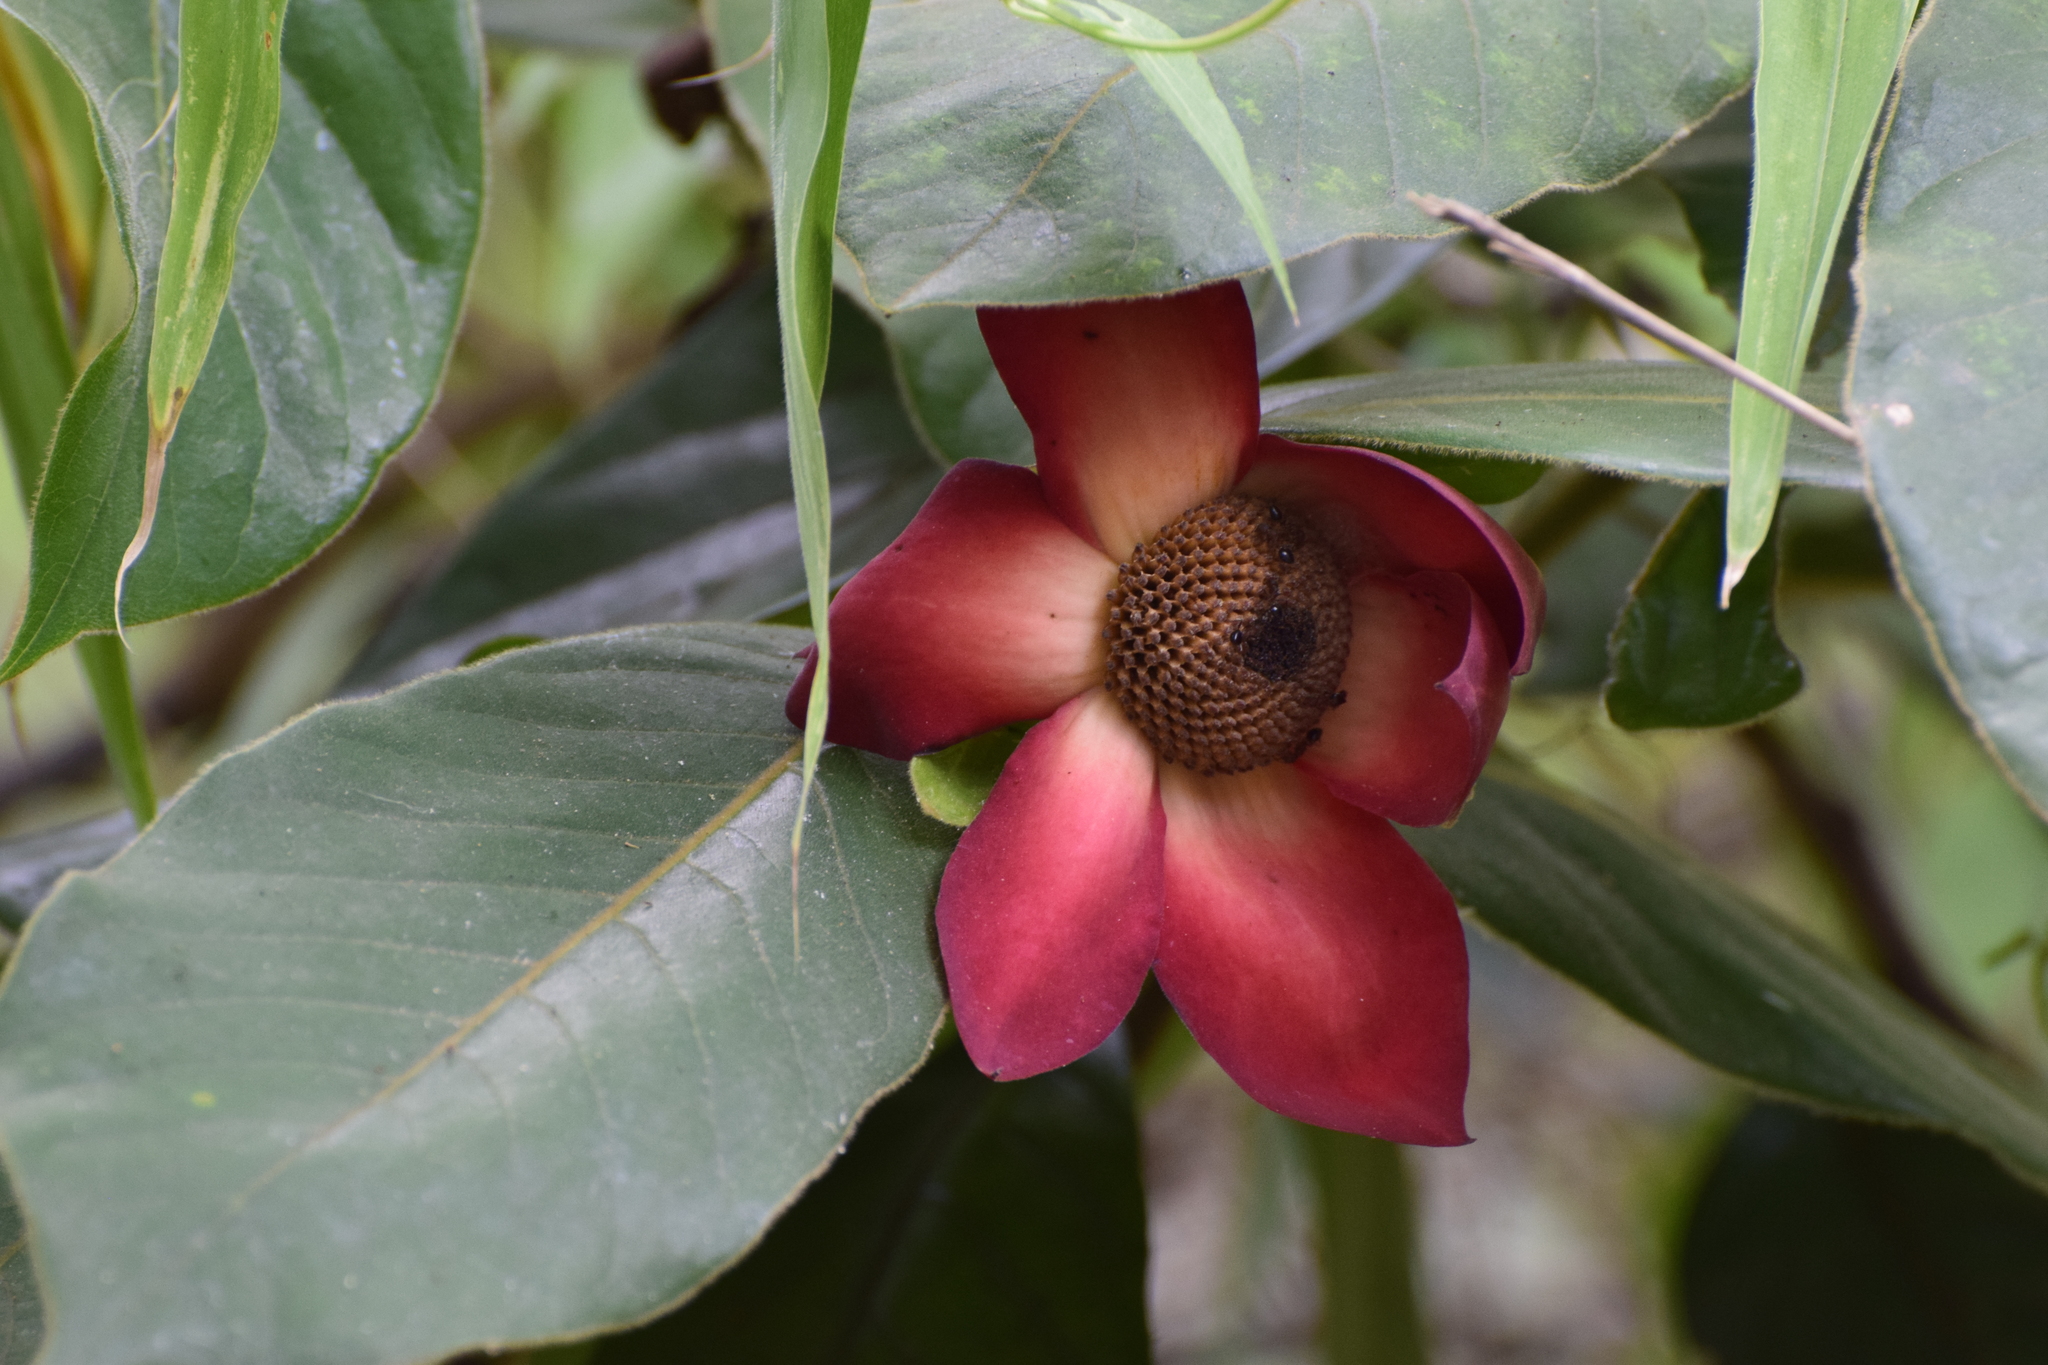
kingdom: Plantae
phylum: Tracheophyta
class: Magnoliopsida
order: Magnoliales
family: Annonaceae
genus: Uvaria
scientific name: Uvaria grandiflora
